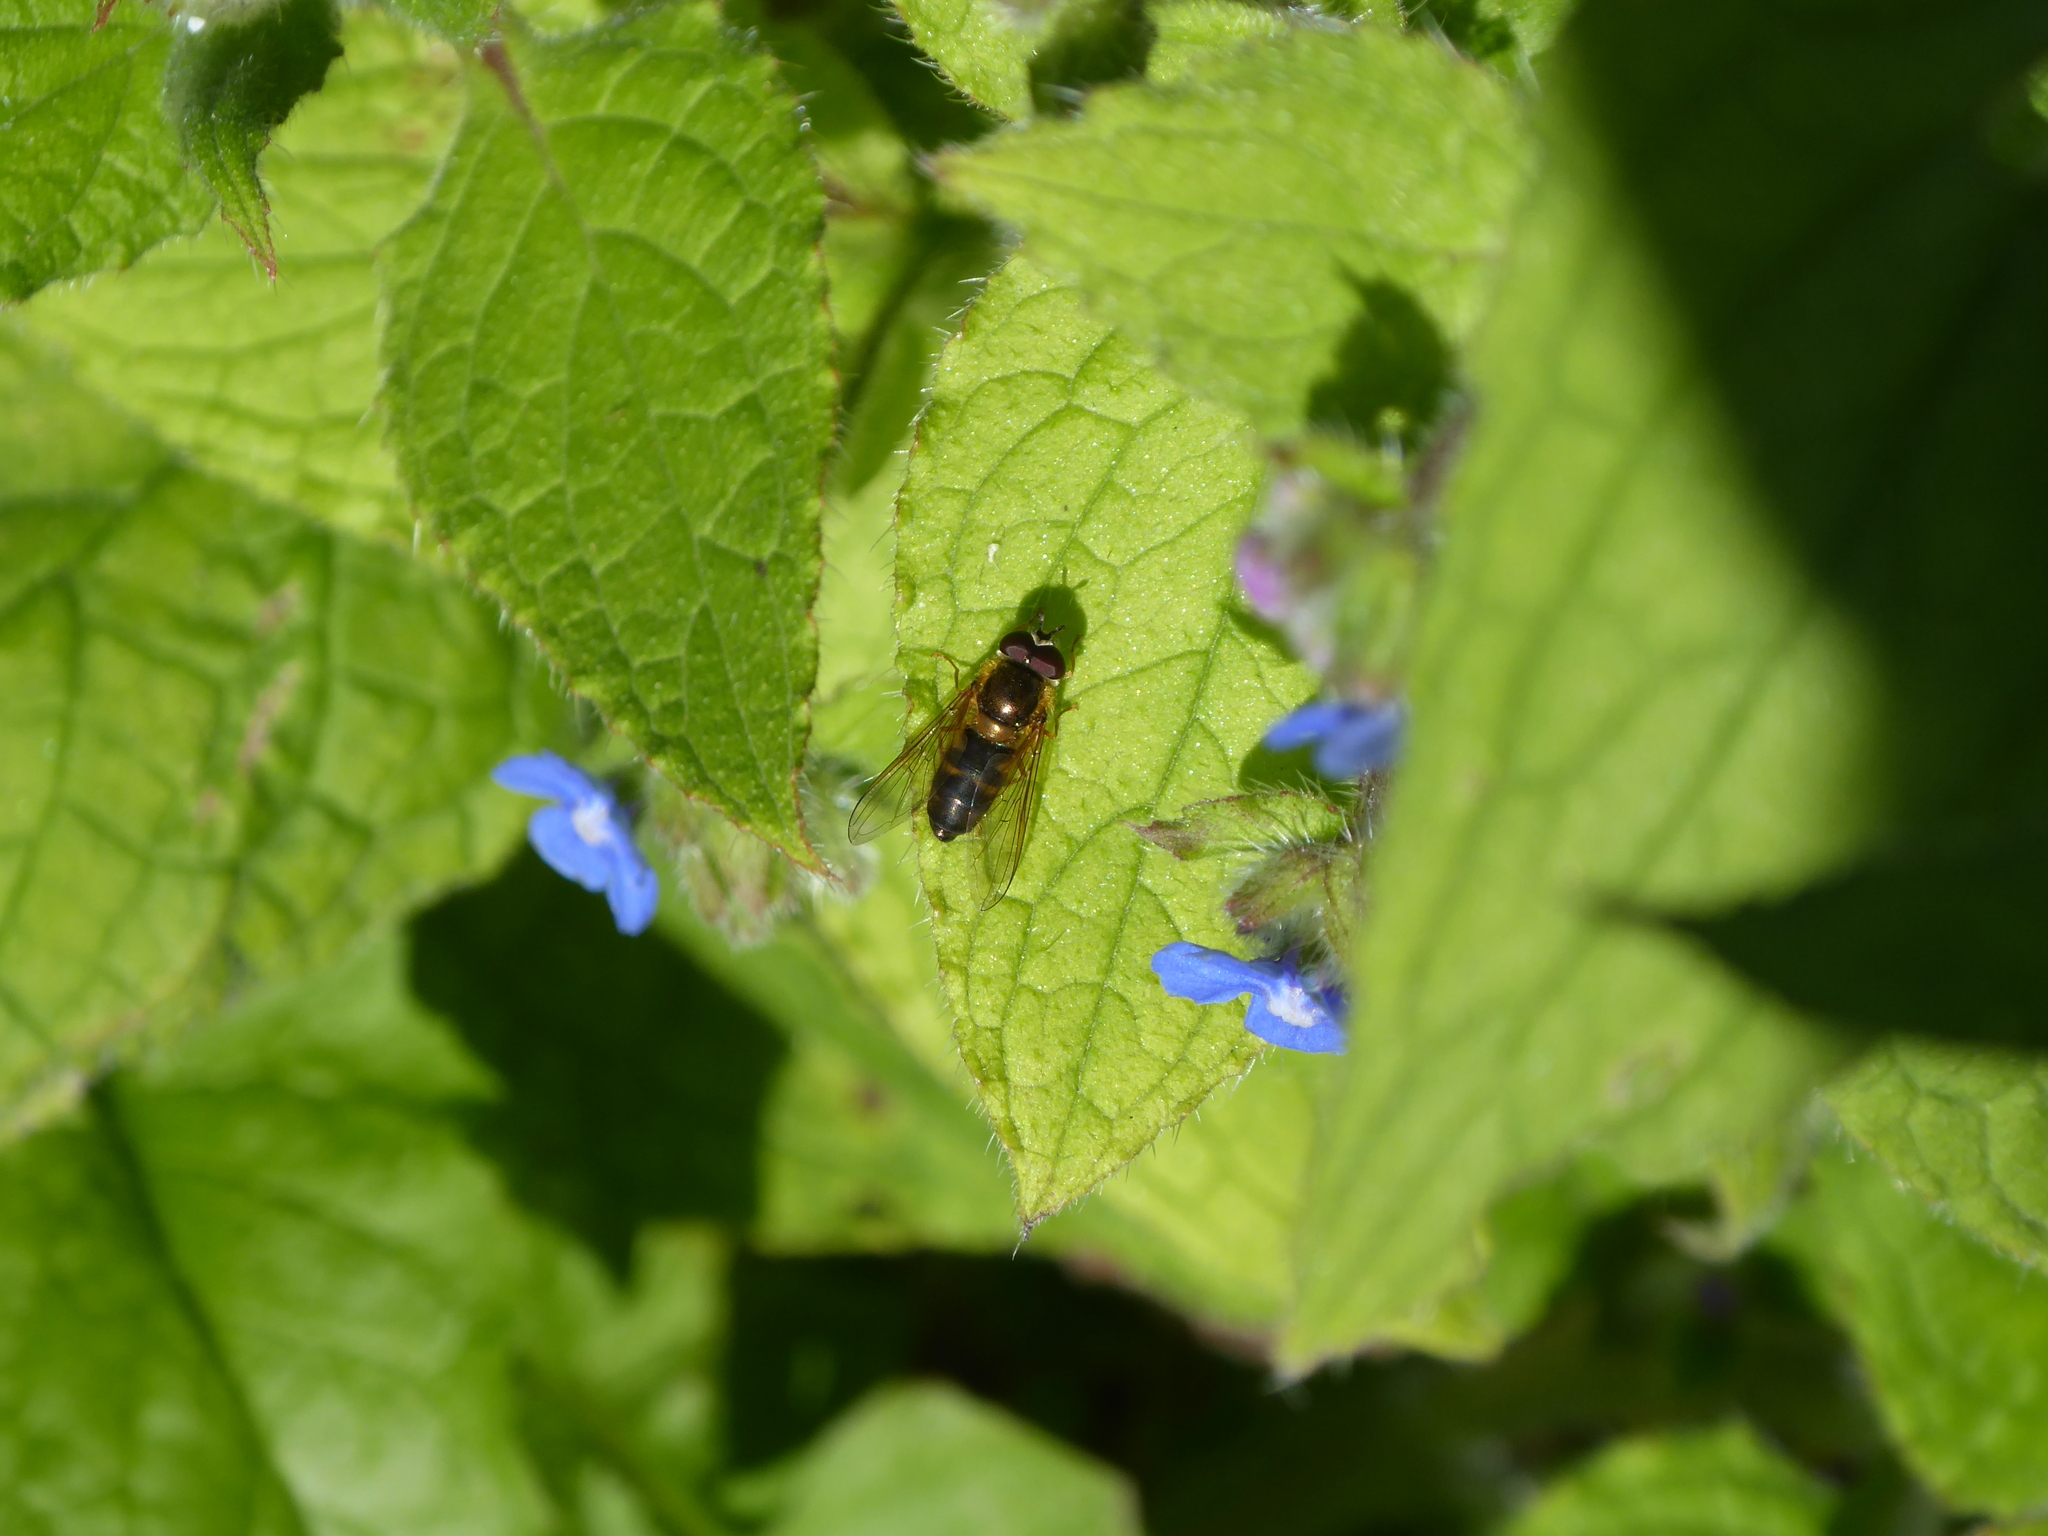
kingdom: Animalia
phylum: Arthropoda
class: Insecta
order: Diptera
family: Syrphidae
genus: Epistrophe
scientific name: Epistrophe eligans
